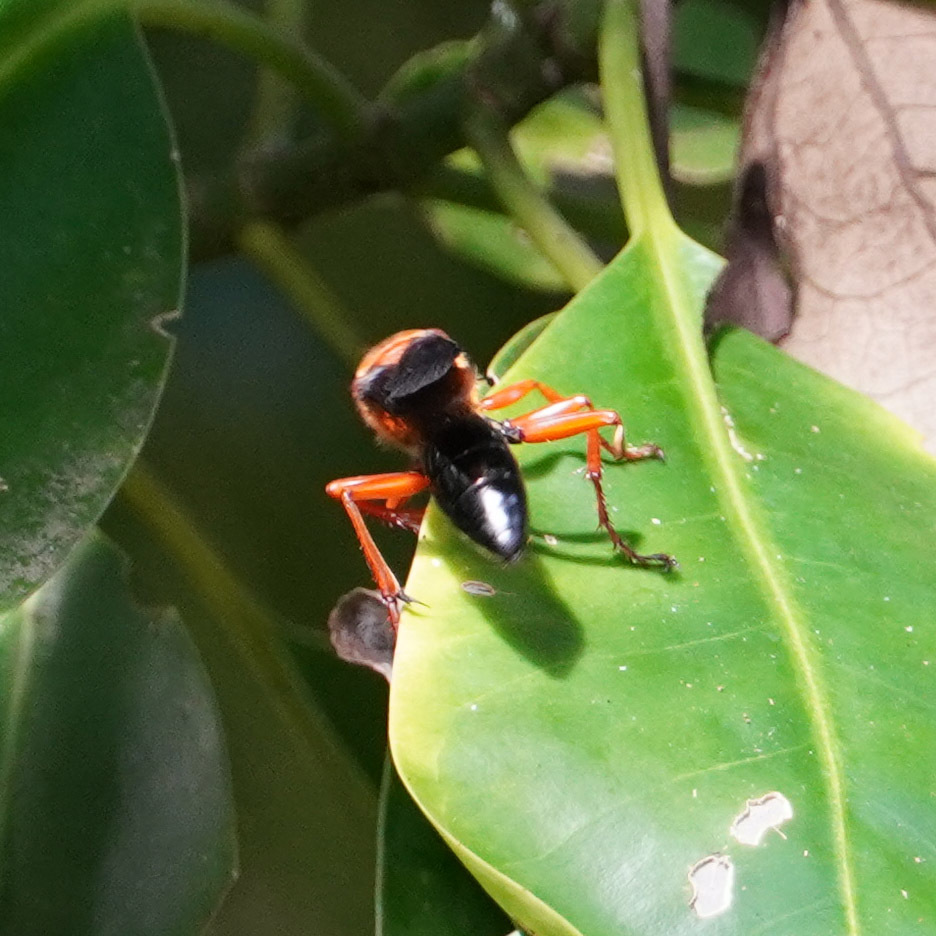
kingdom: Animalia
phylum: Arthropoda
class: Insecta
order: Hymenoptera
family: Sphecidae
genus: Sphex
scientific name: Sphex sericeus
